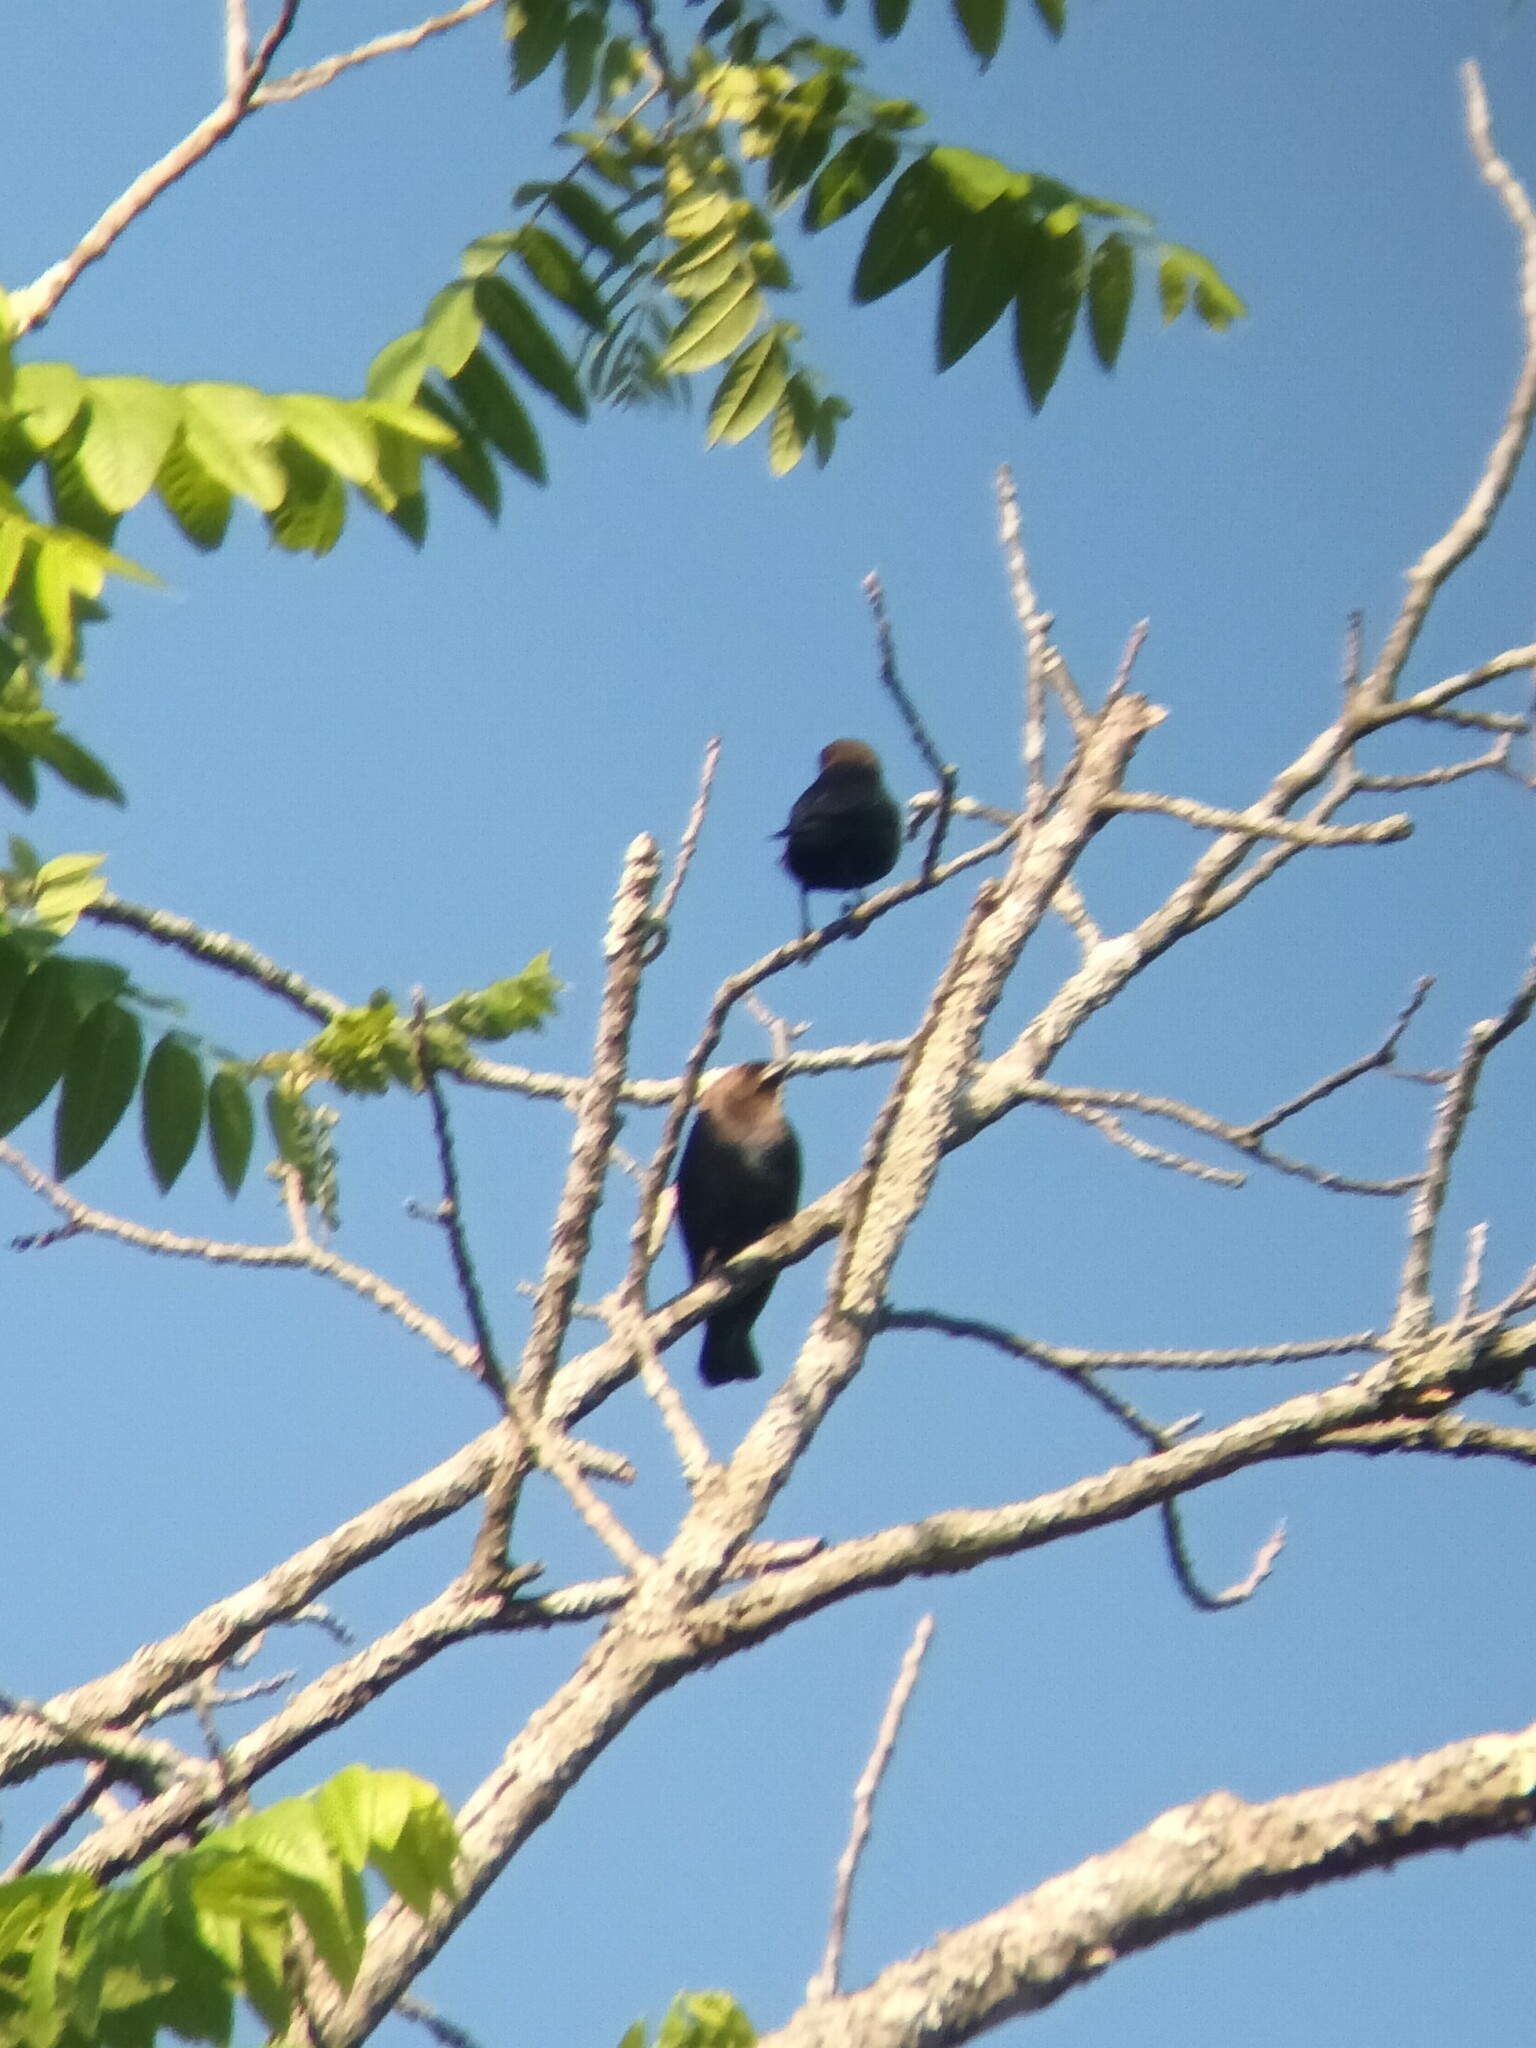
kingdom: Animalia
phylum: Chordata
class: Aves
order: Passeriformes
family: Icteridae
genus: Molothrus
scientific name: Molothrus ater
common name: Brown-headed cowbird
